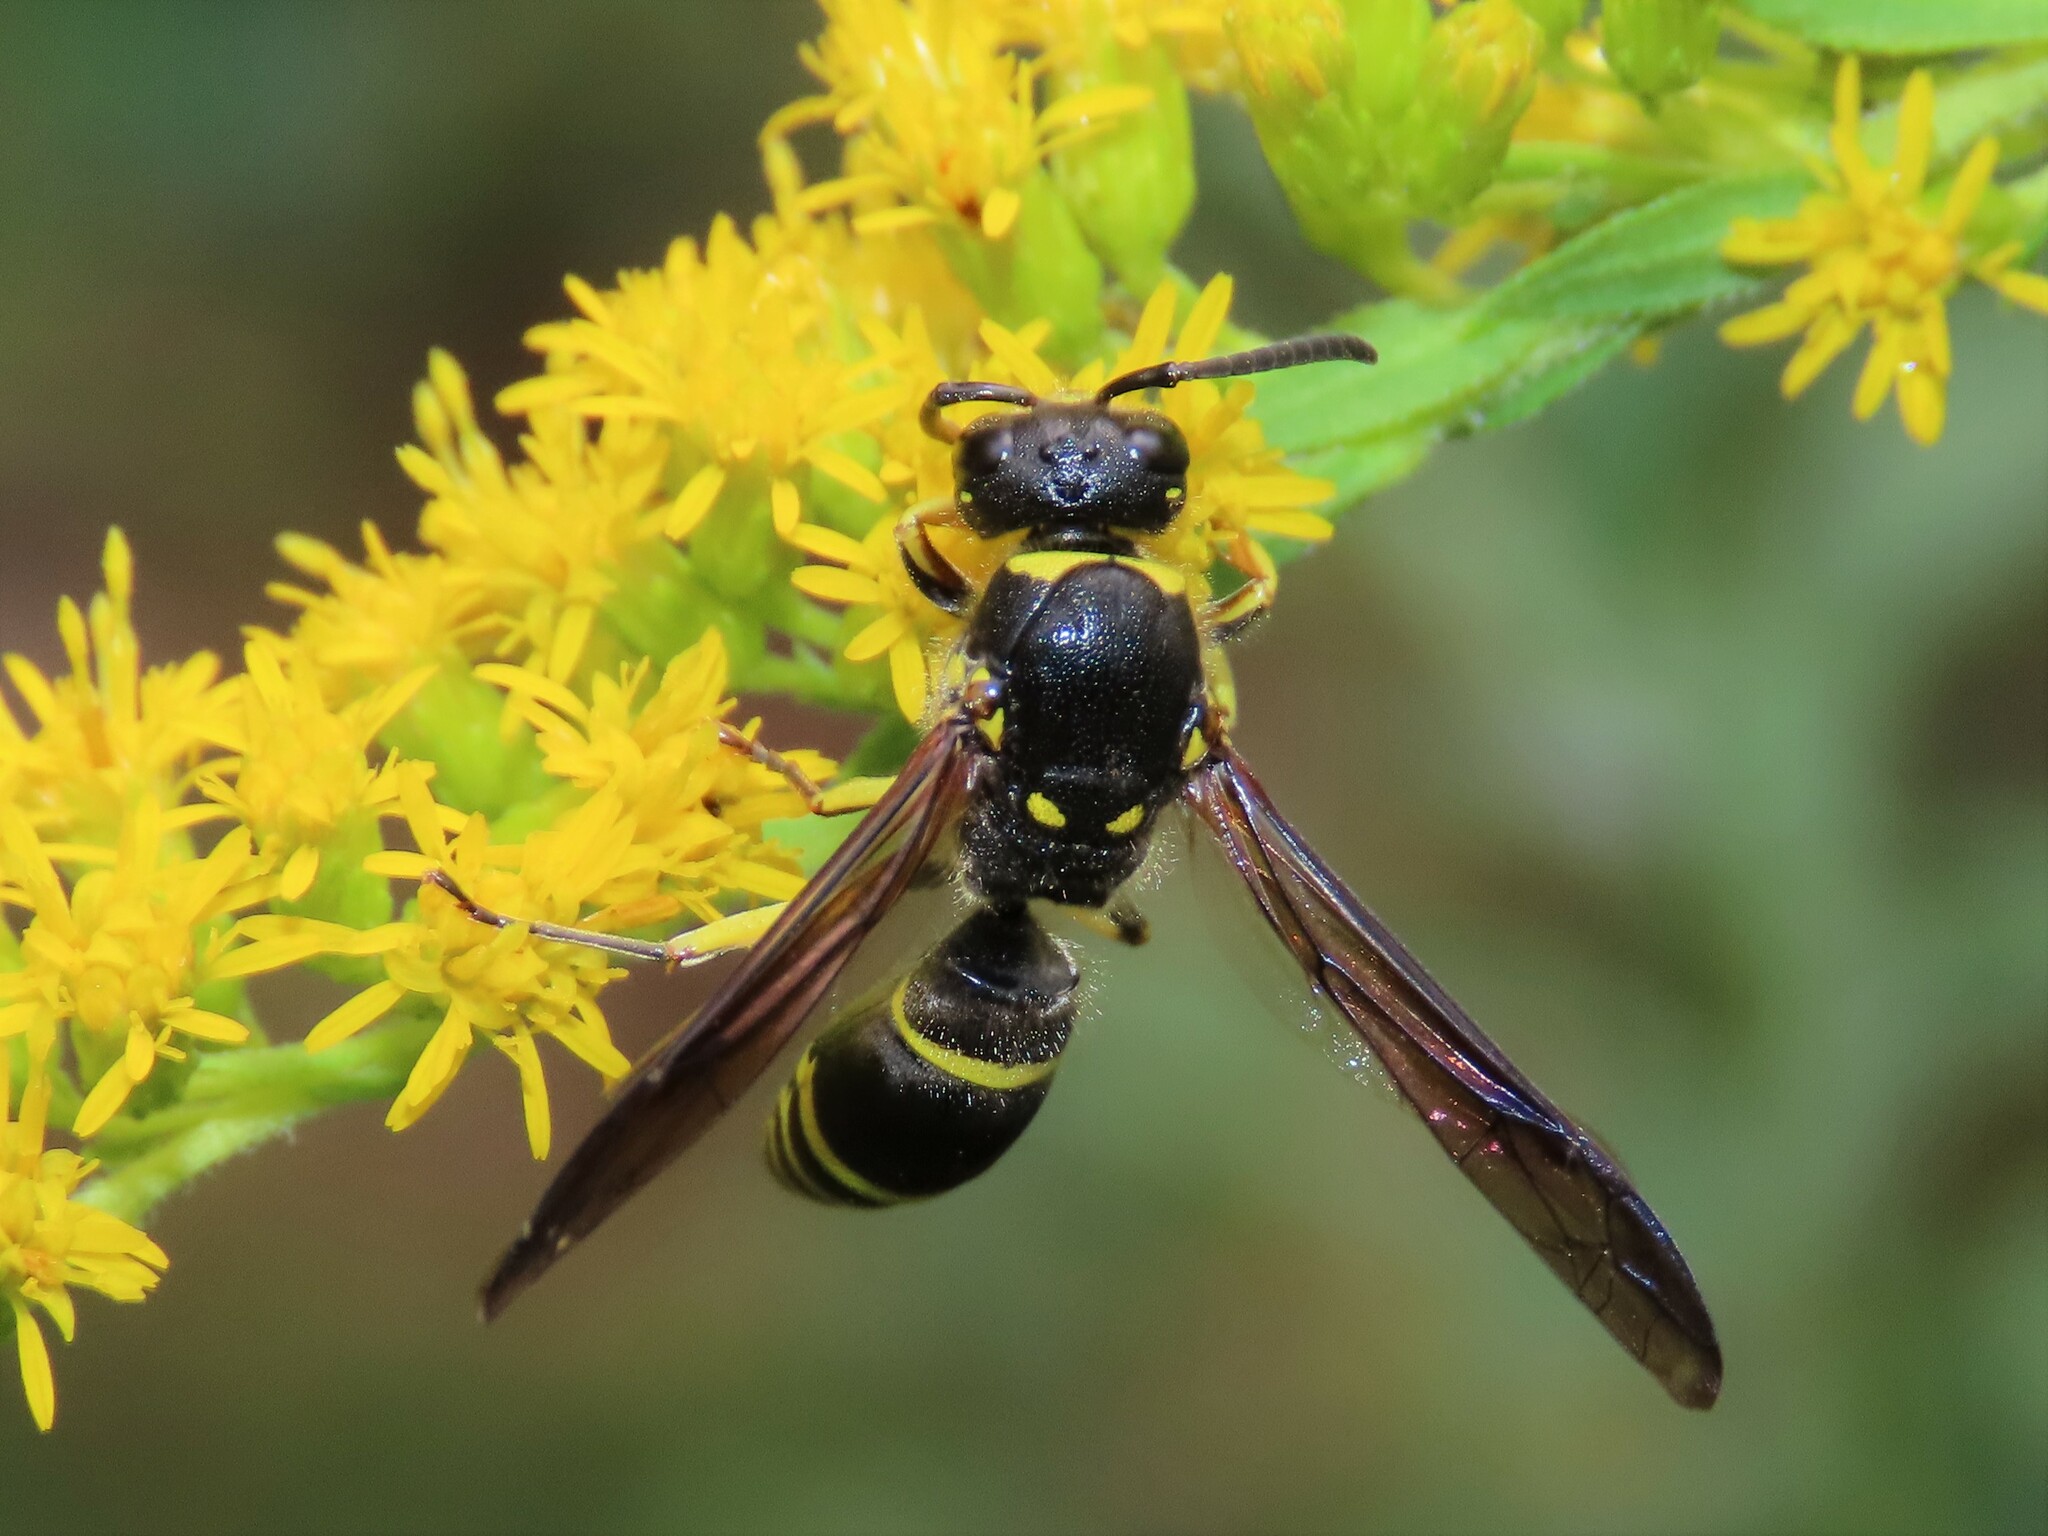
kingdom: Animalia
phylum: Arthropoda
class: Insecta
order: Hymenoptera
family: Vespidae
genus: Ancistrocerus
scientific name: Ancistrocerus
